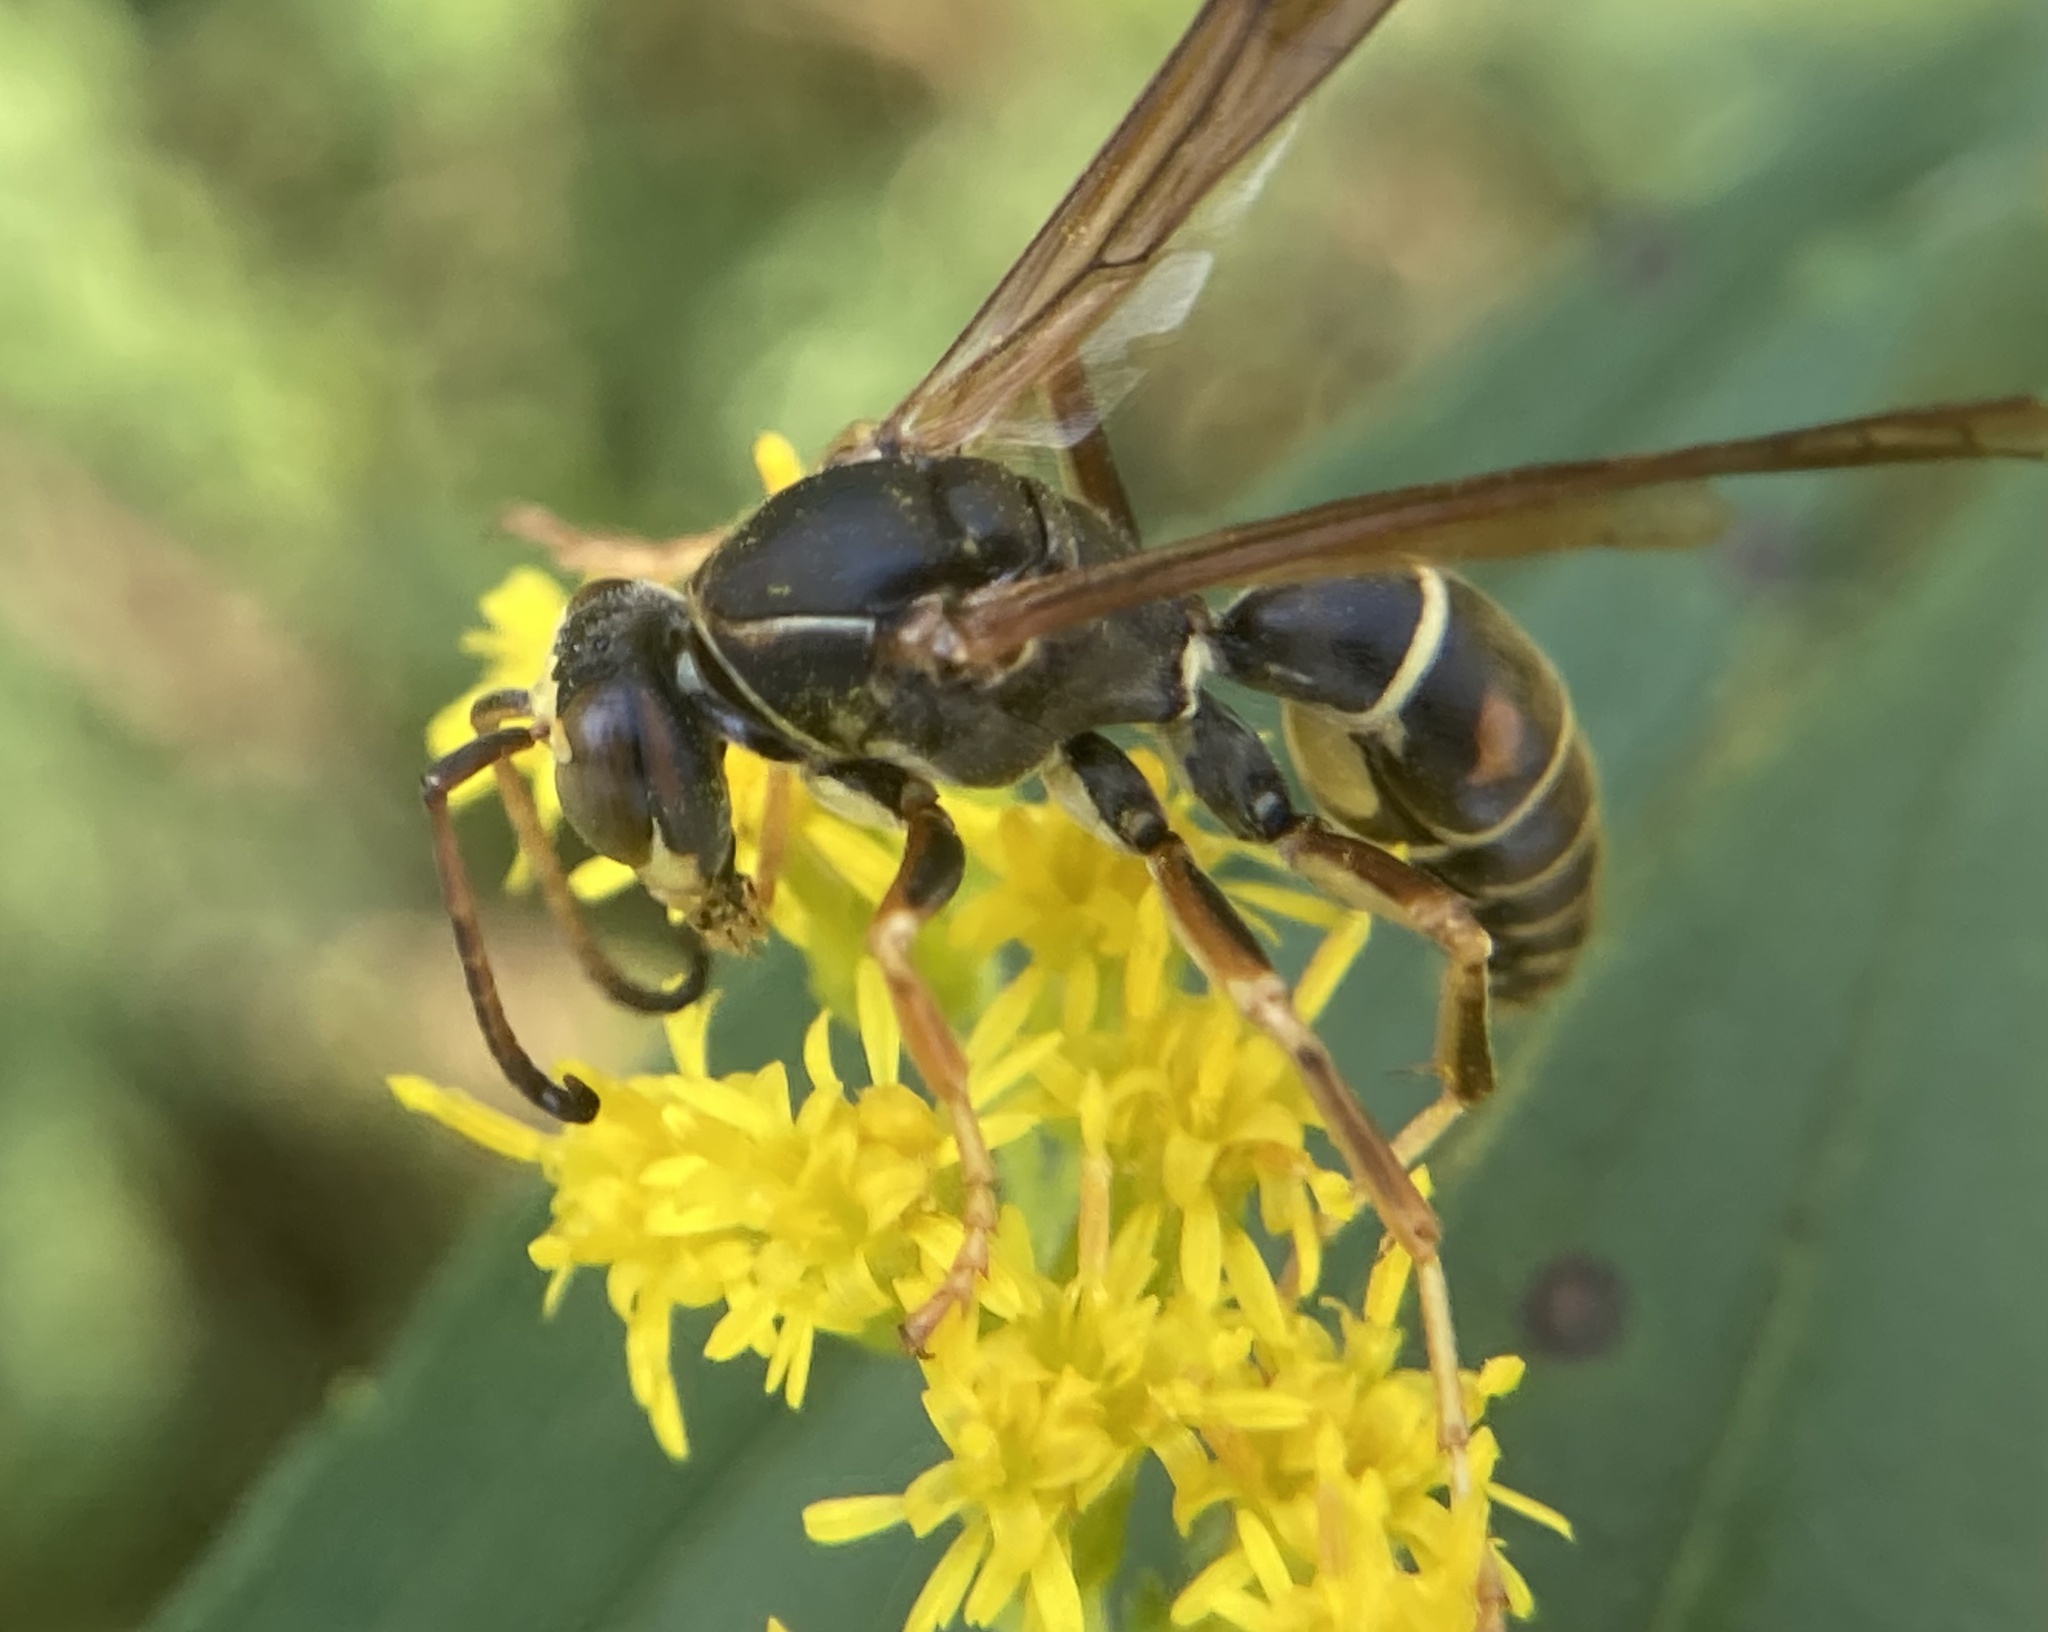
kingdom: Animalia
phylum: Arthropoda
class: Insecta
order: Hymenoptera
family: Eumenidae
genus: Polistes
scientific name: Polistes fuscatus
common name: Dark paper wasp
